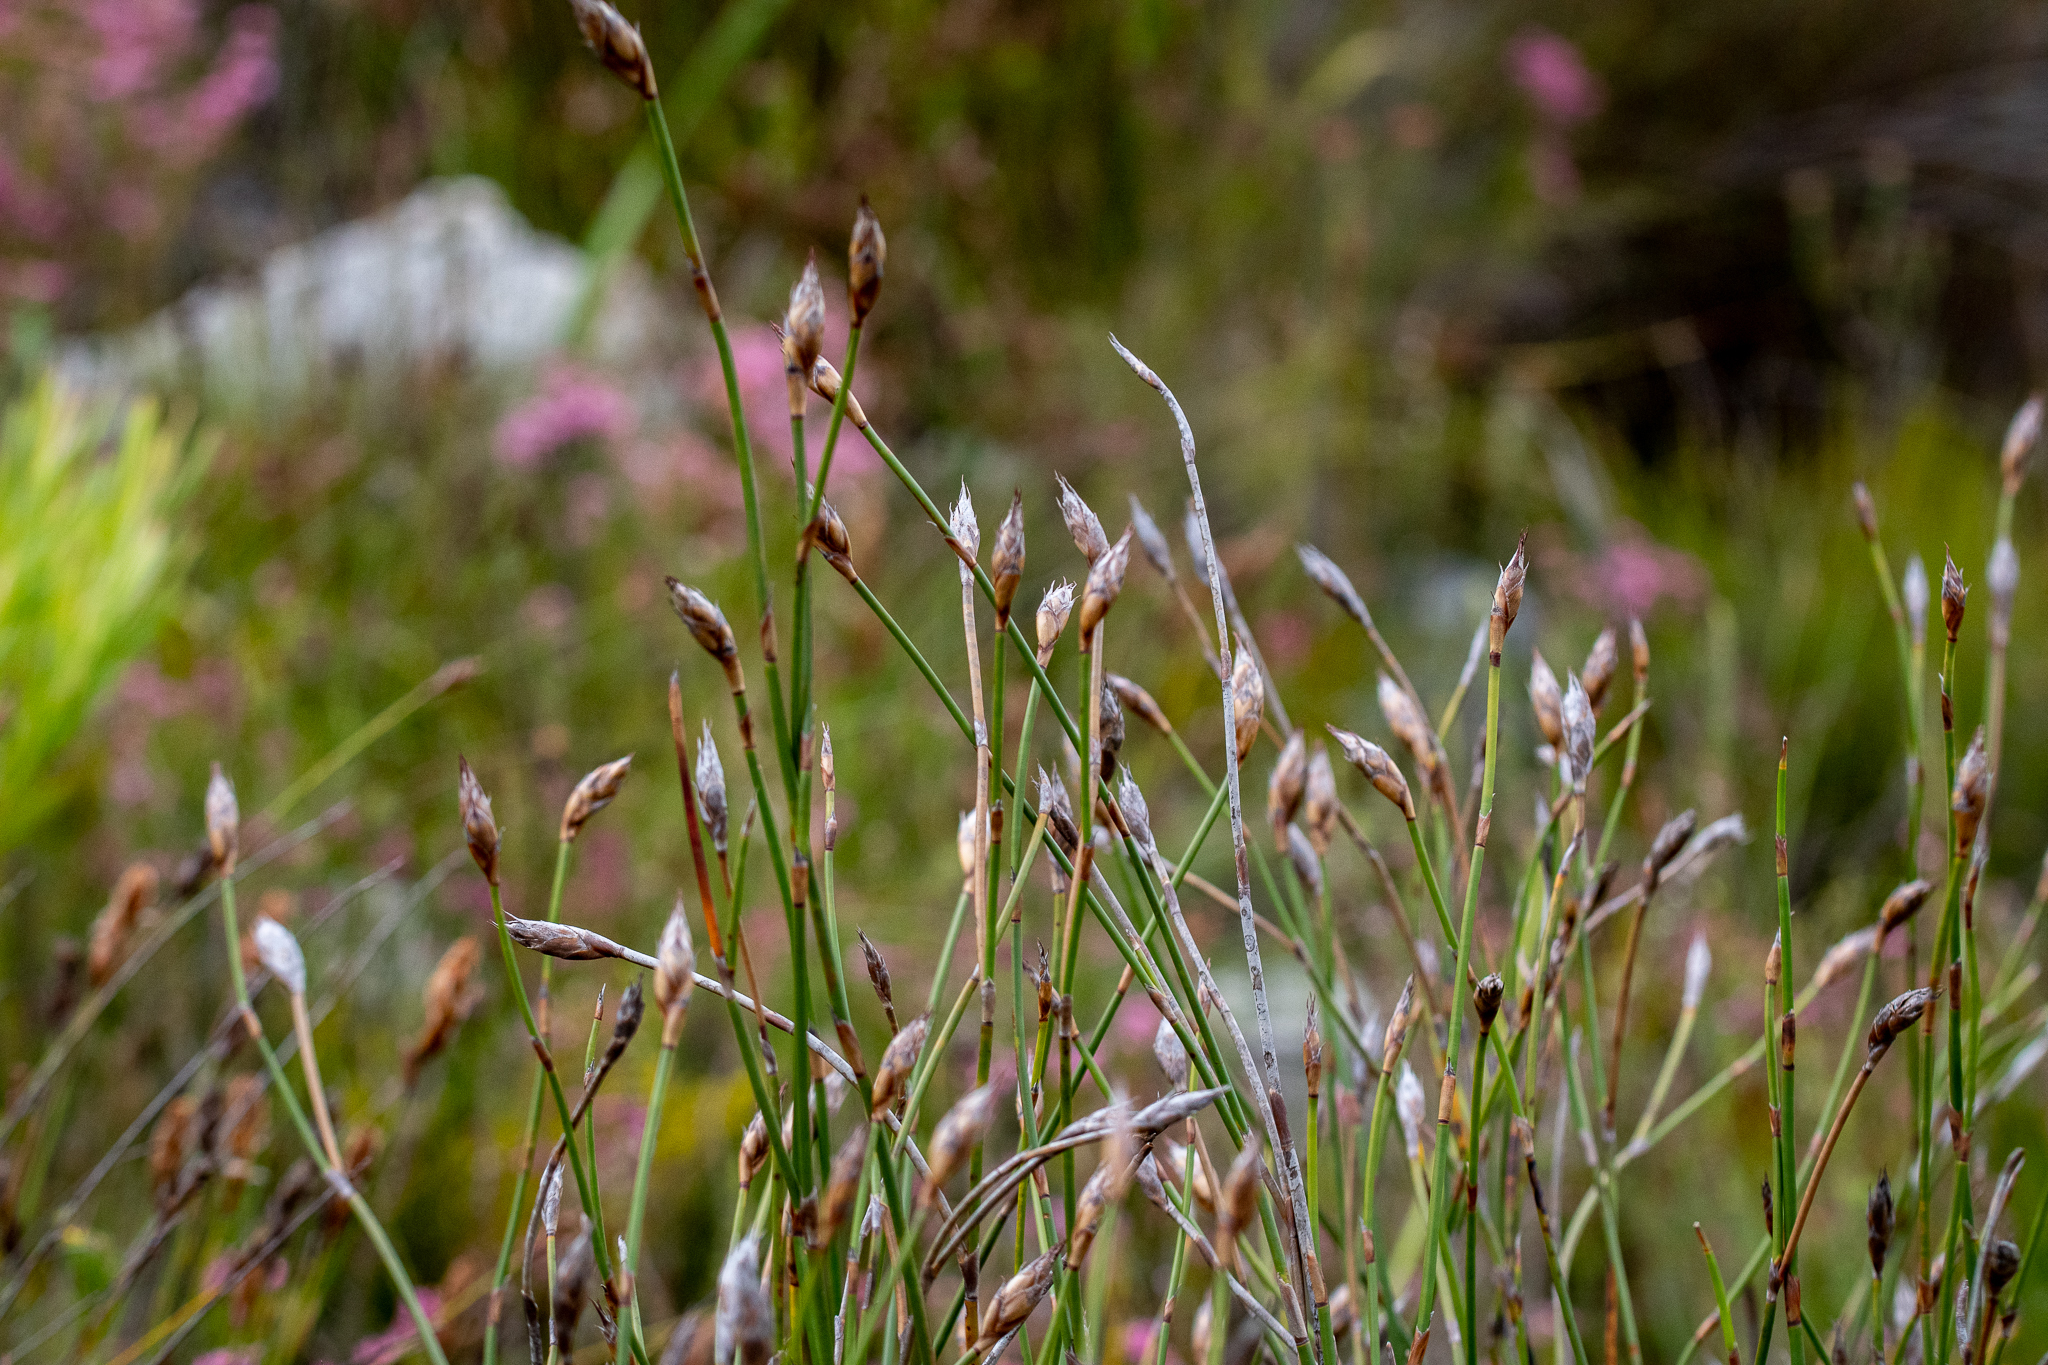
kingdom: Plantae
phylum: Tracheophyta
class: Liliopsida
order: Poales
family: Restionaceae
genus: Restio
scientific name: Restio egregius
